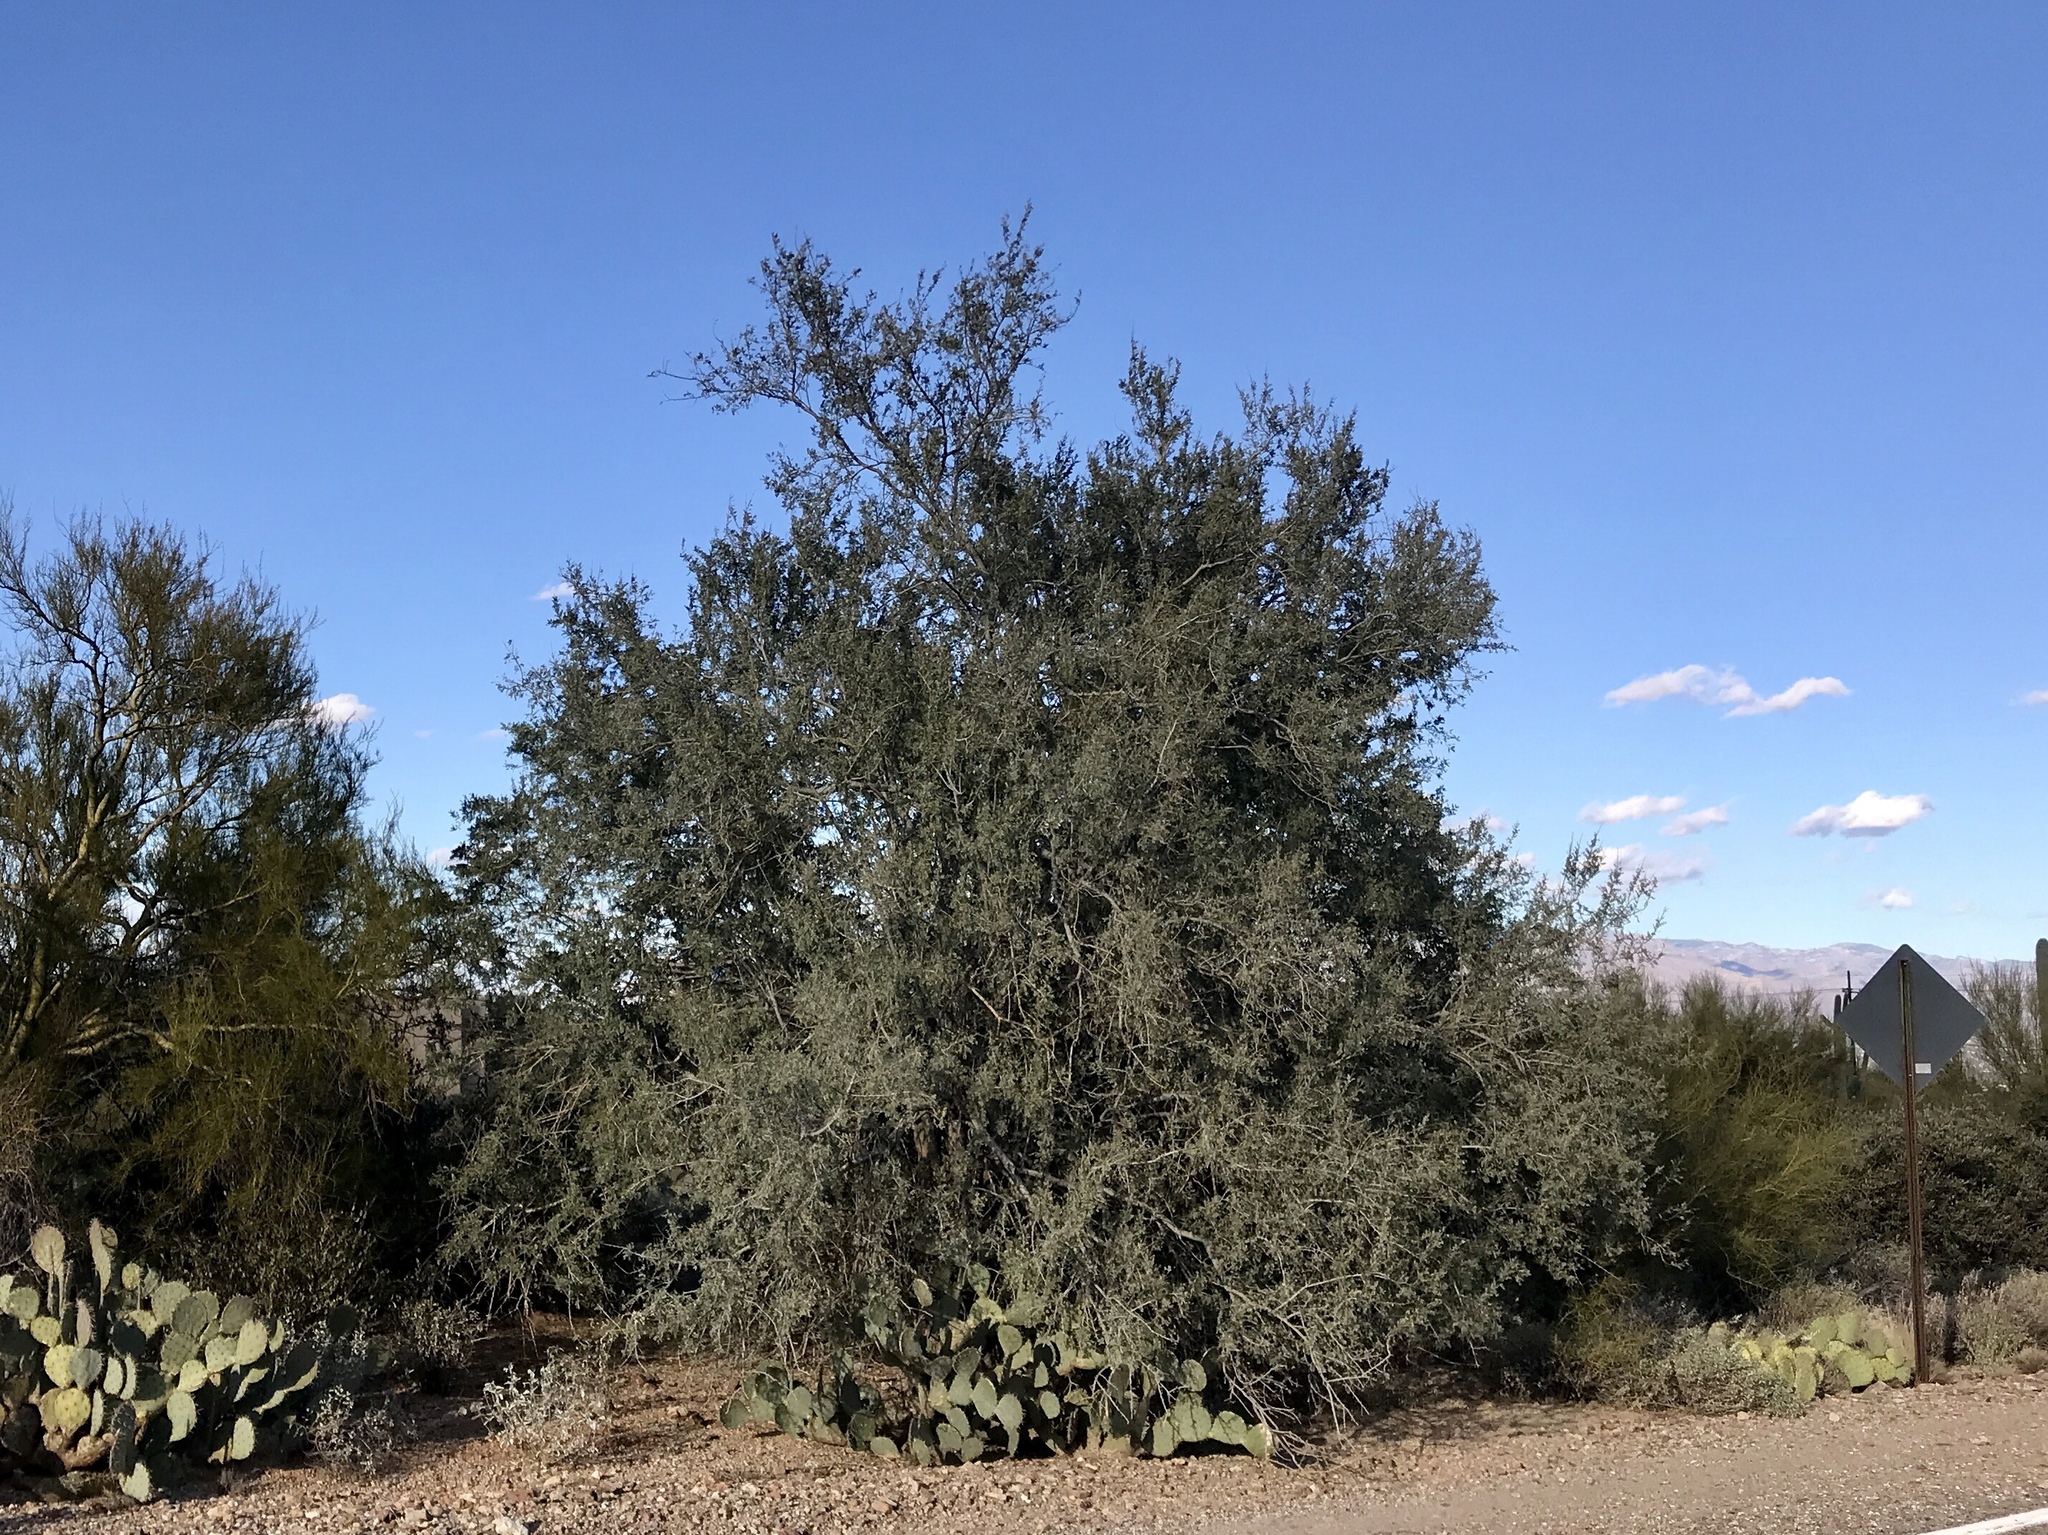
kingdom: Plantae
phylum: Tracheophyta
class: Magnoliopsida
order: Fabales
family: Fabaceae
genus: Olneya
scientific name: Olneya tesota
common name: Desert ironwood
